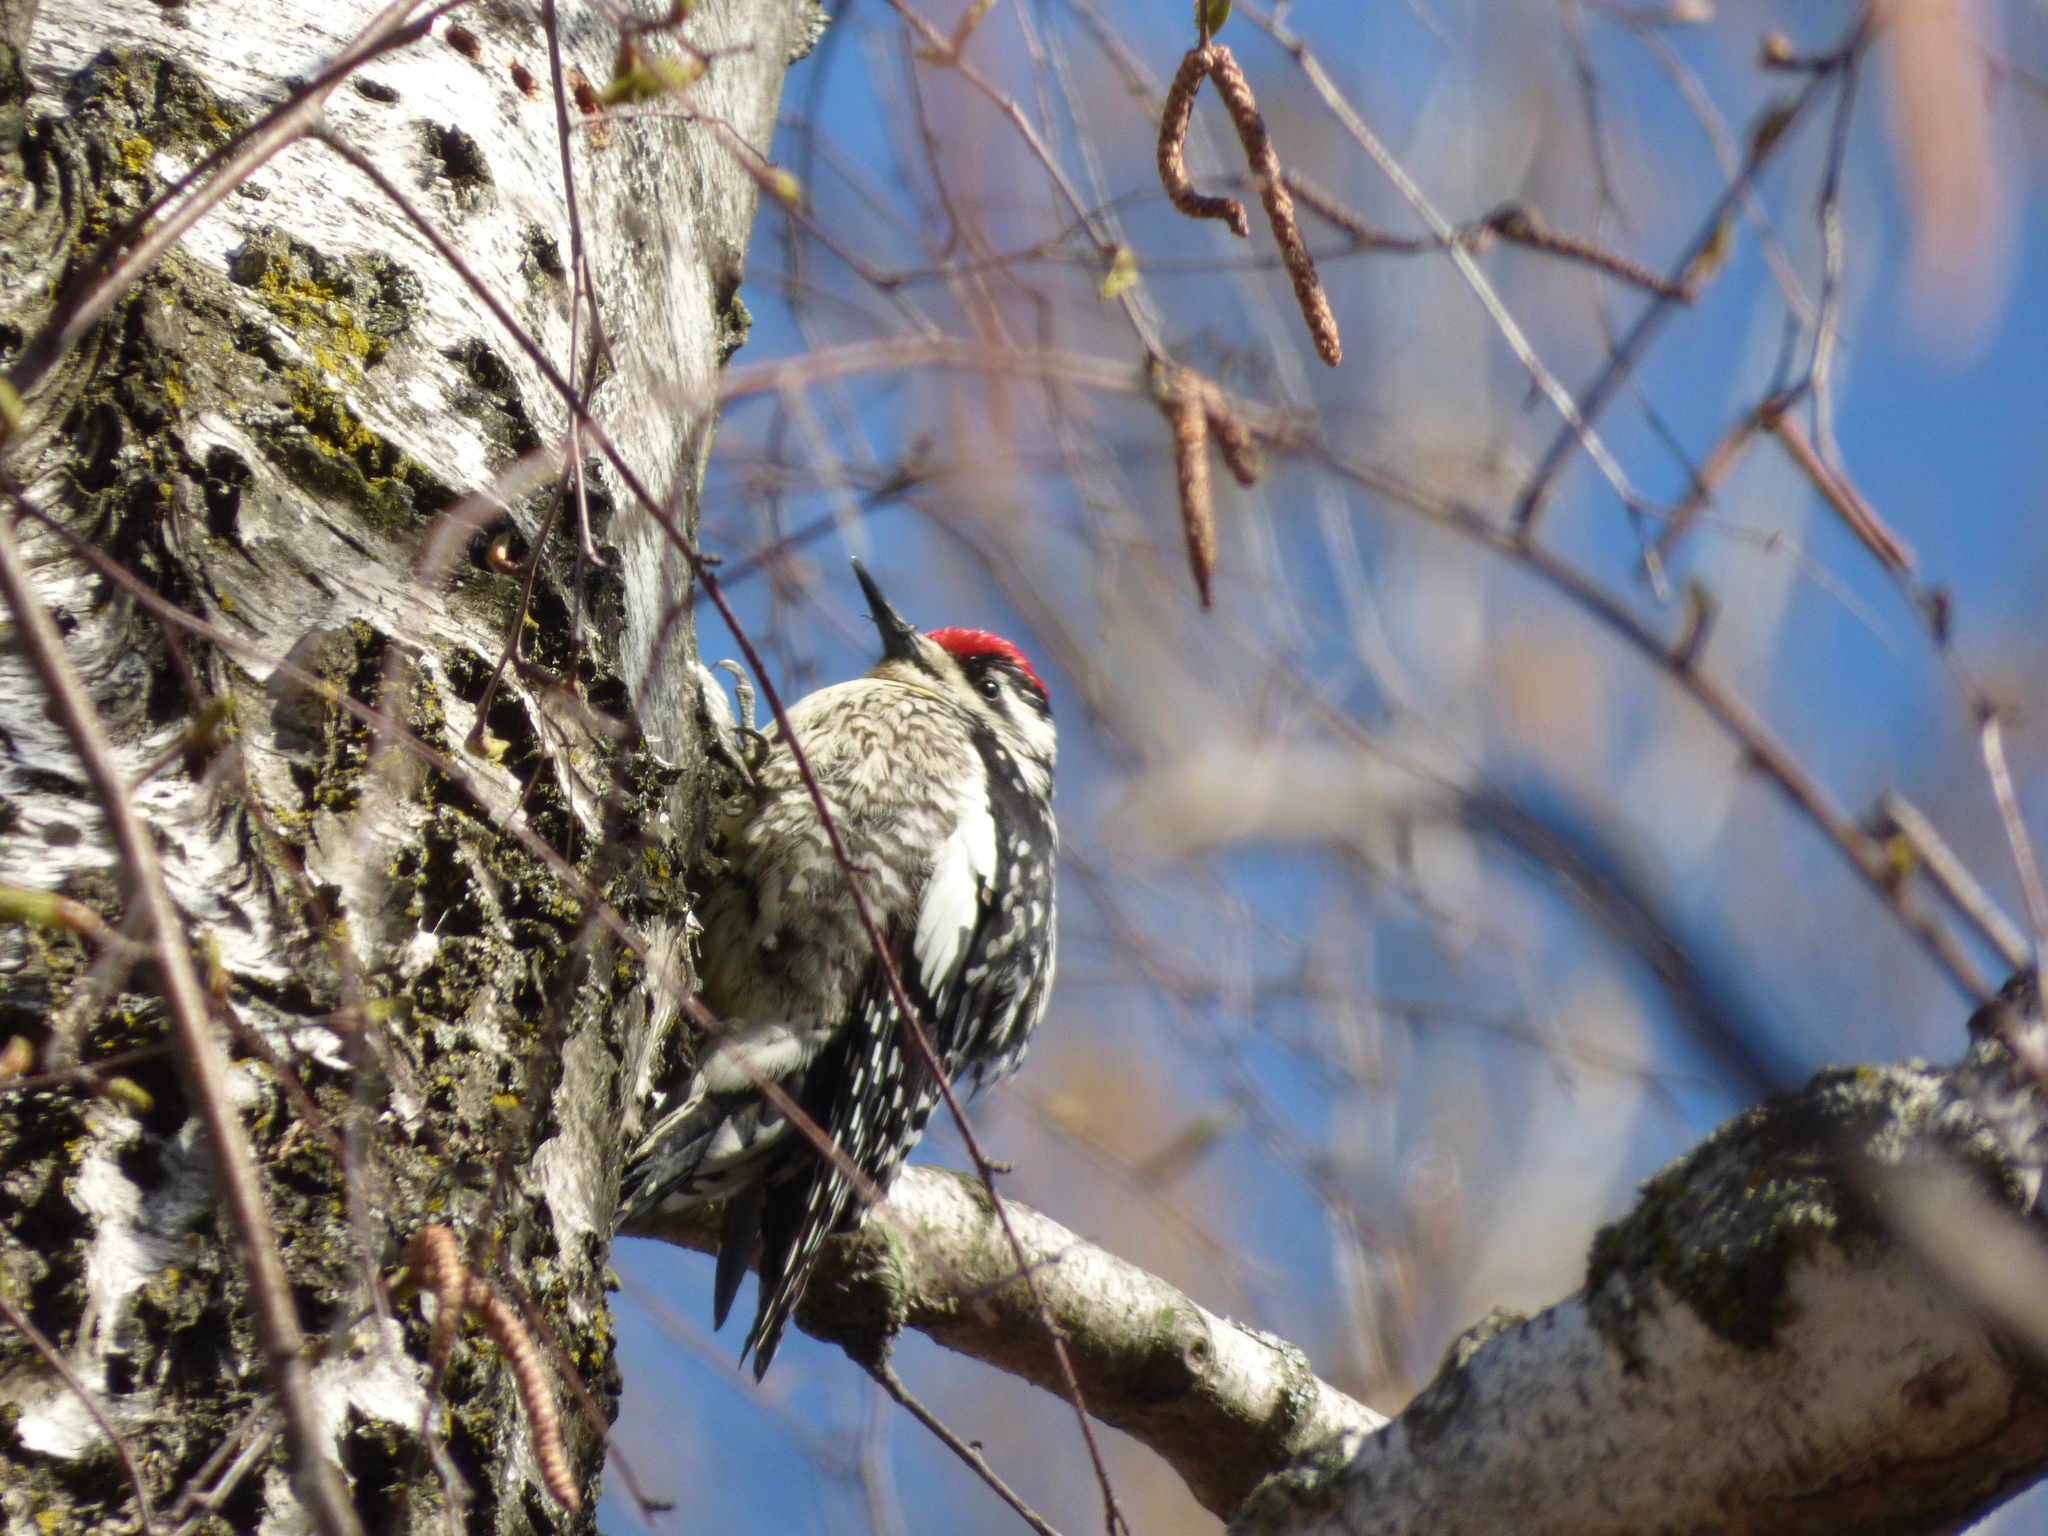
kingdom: Animalia
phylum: Chordata
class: Aves
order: Piciformes
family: Picidae
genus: Sphyrapicus
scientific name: Sphyrapicus varius
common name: Yellow-bellied sapsucker
